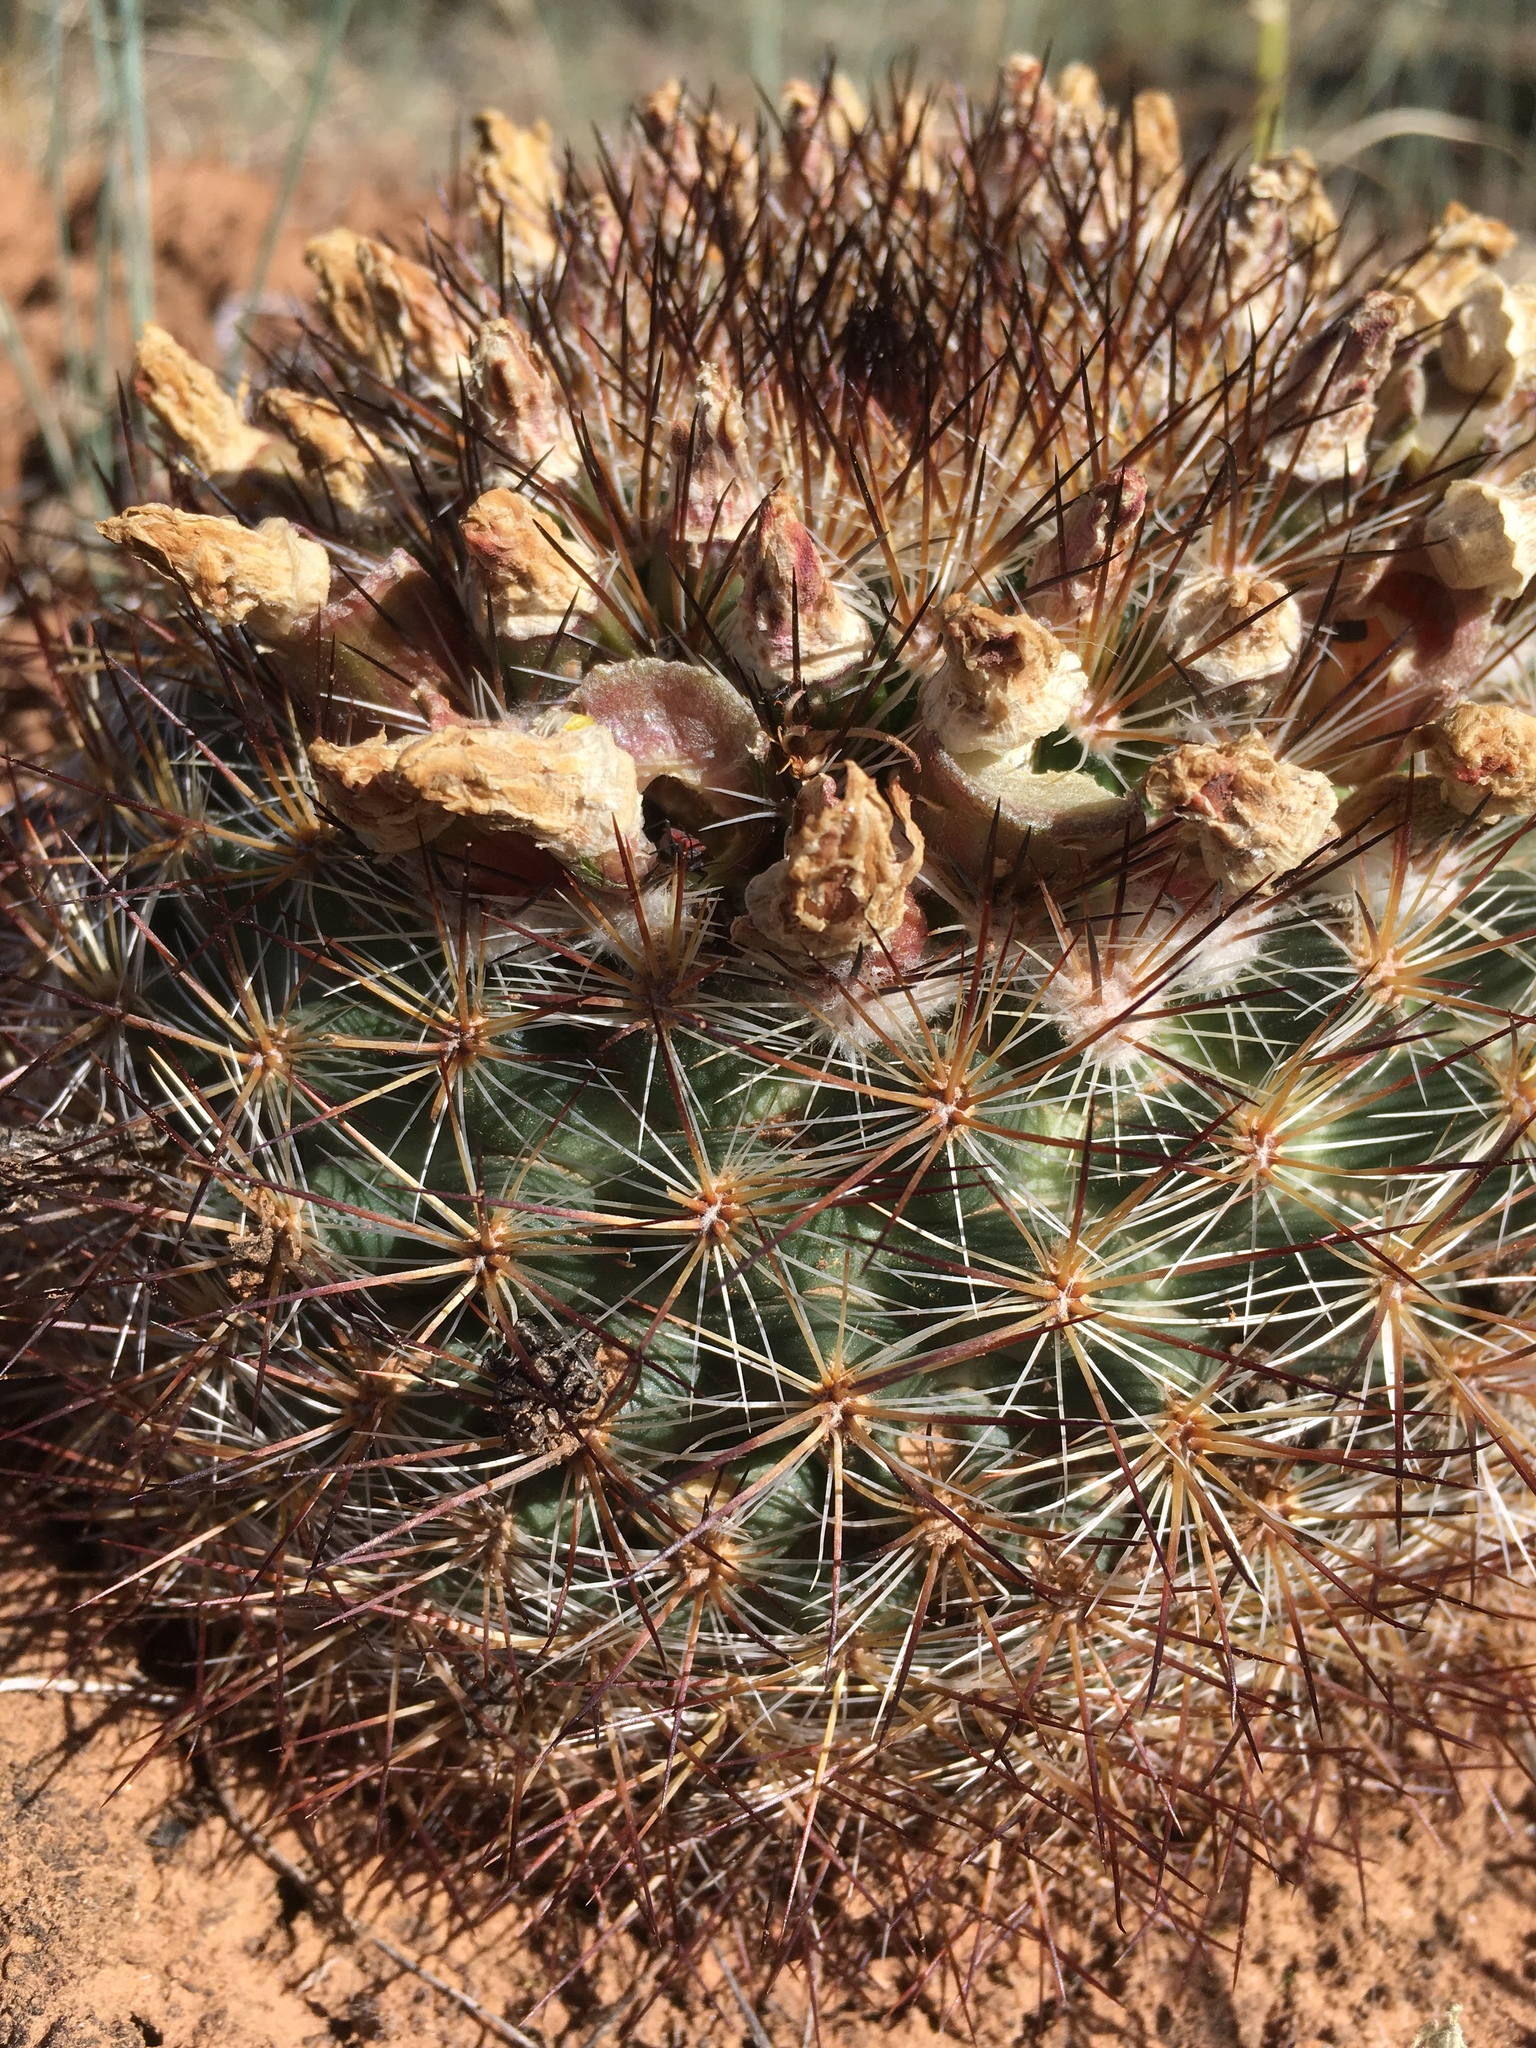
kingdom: Plantae
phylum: Tracheophyta
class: Magnoliopsida
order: Caryophyllales
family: Cactaceae
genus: Pediocactus
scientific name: Pediocactus simpsonii
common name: Simpson's hedgehog cactus
